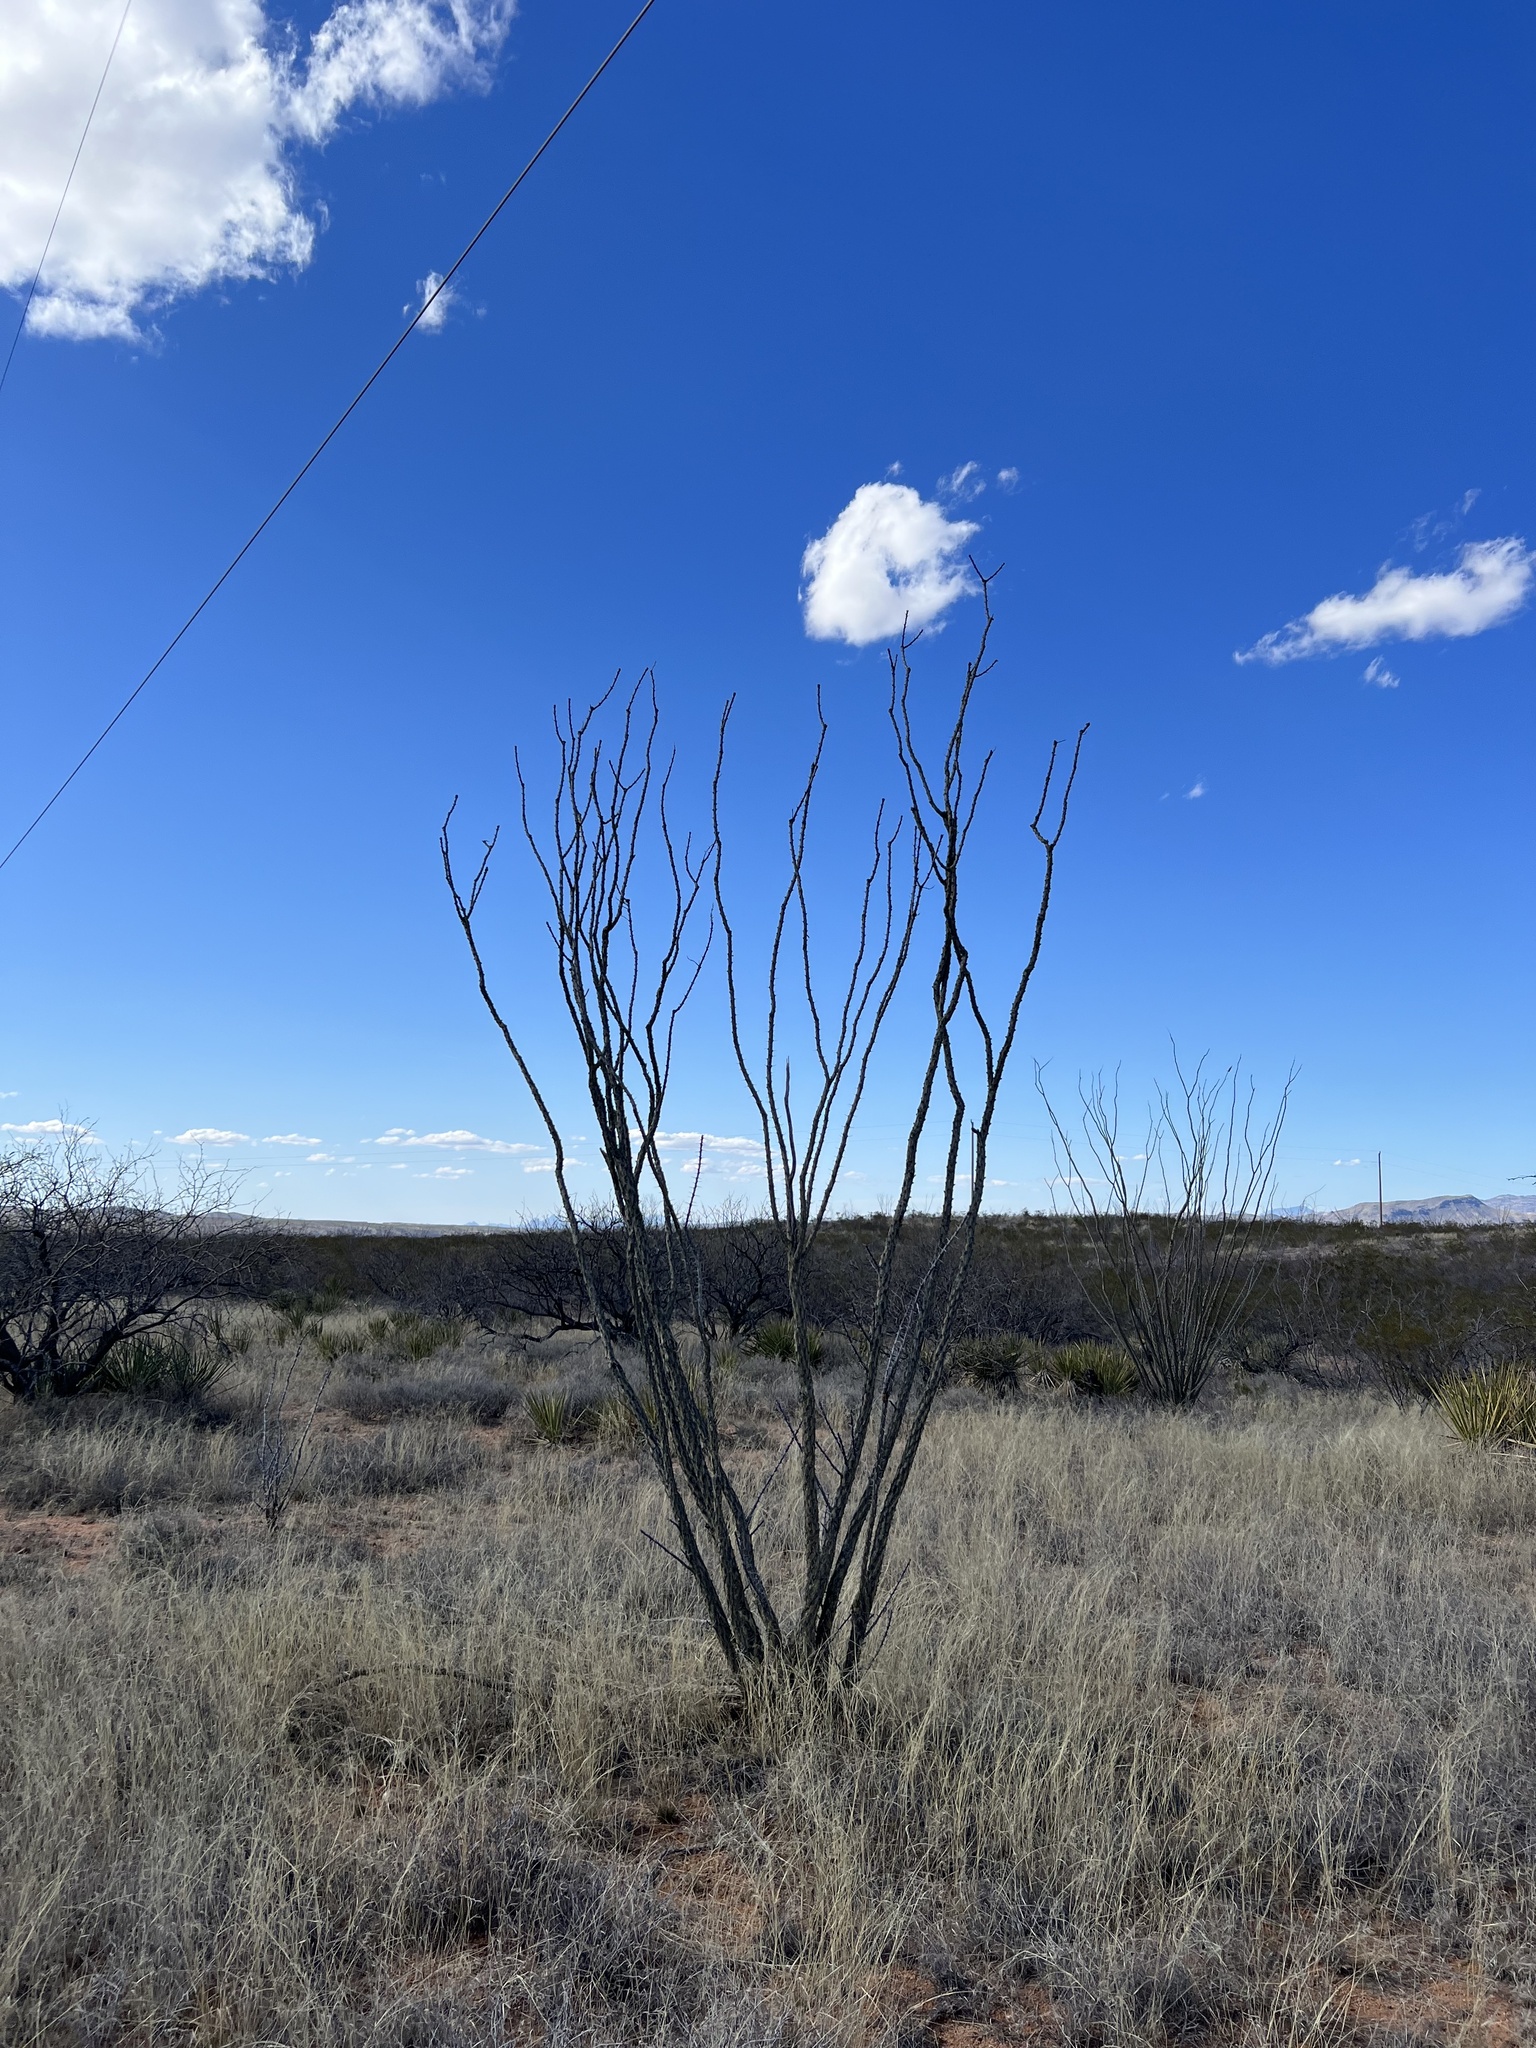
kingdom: Plantae
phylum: Tracheophyta
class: Magnoliopsida
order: Ericales
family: Fouquieriaceae
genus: Fouquieria
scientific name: Fouquieria splendens
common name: Vine-cactus
